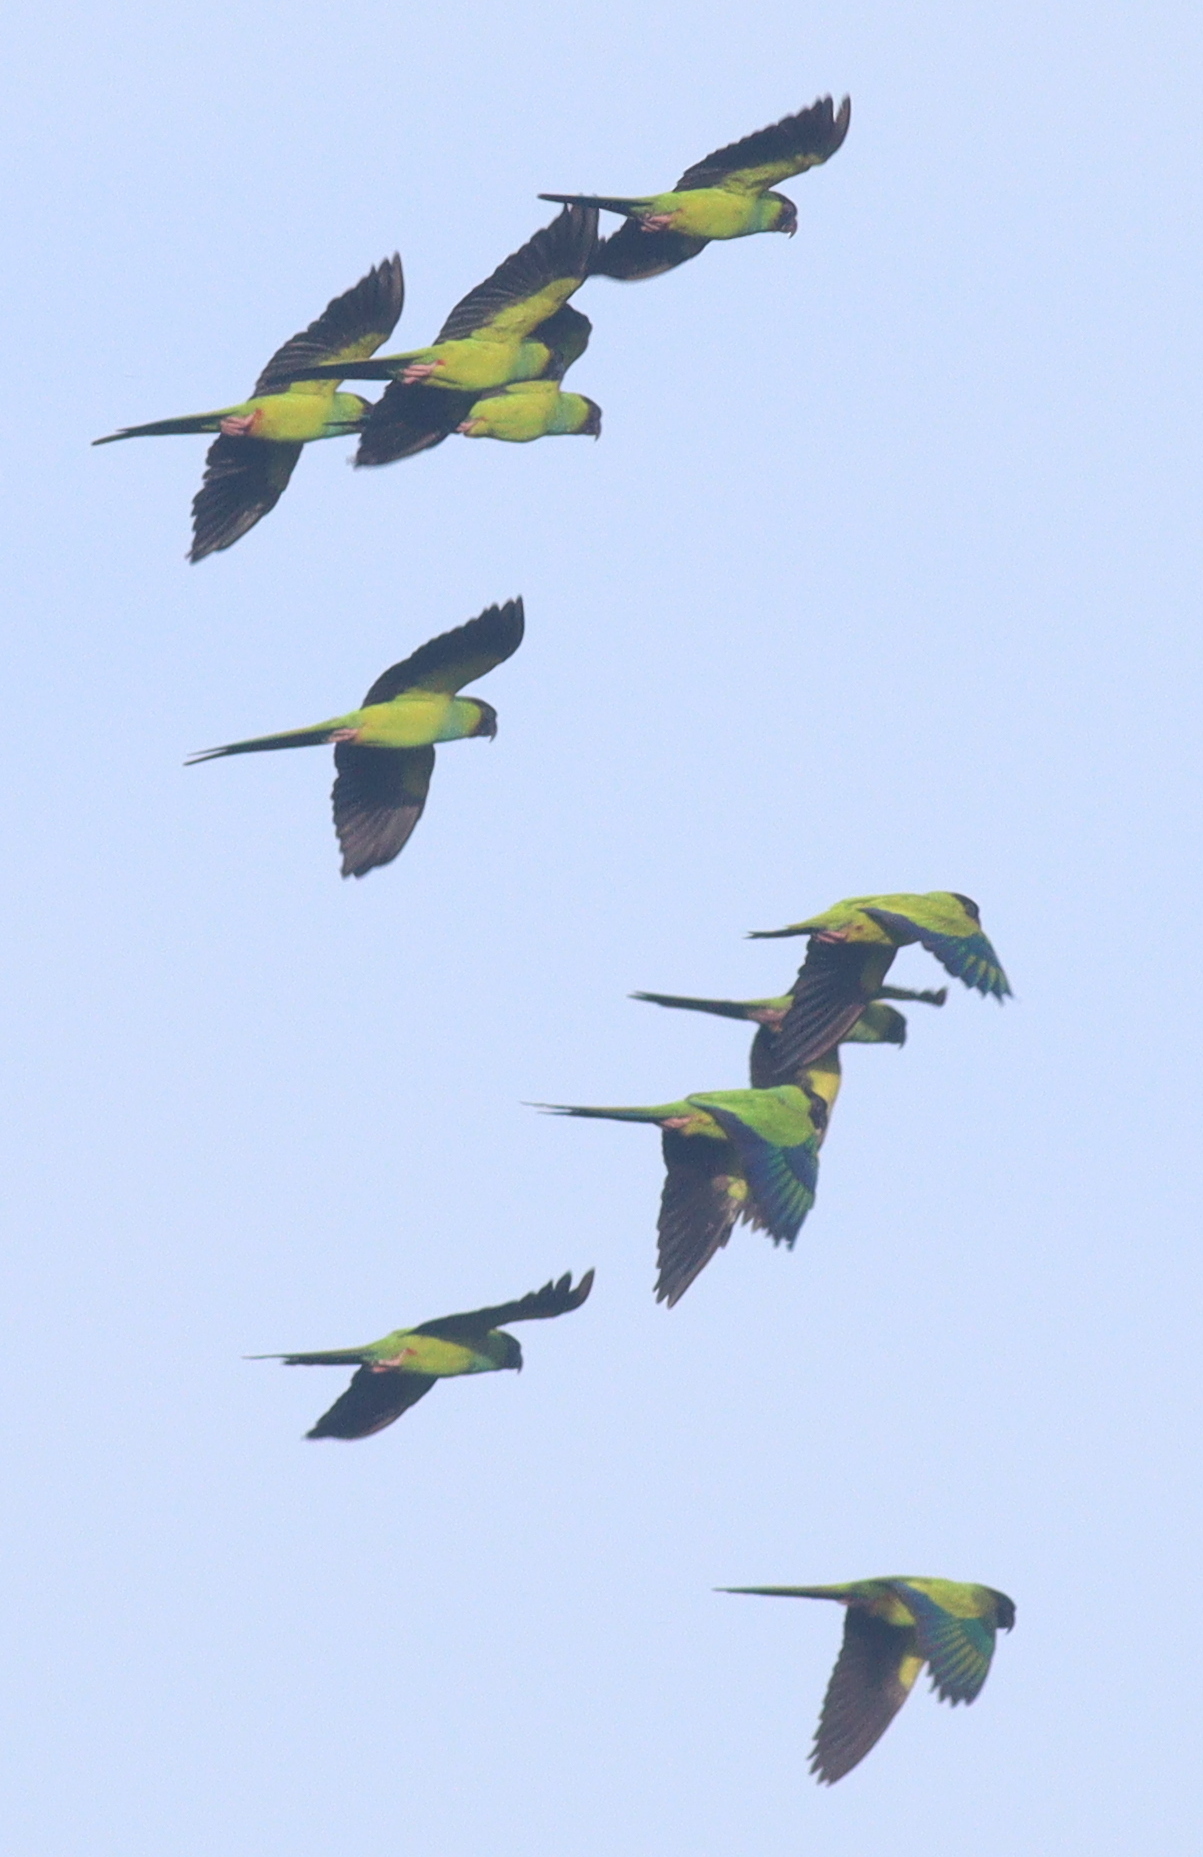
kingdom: Animalia
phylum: Chordata
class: Aves
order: Psittaciformes
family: Psittacidae
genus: Nandayus
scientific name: Nandayus nenday
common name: Nanday parakeet
